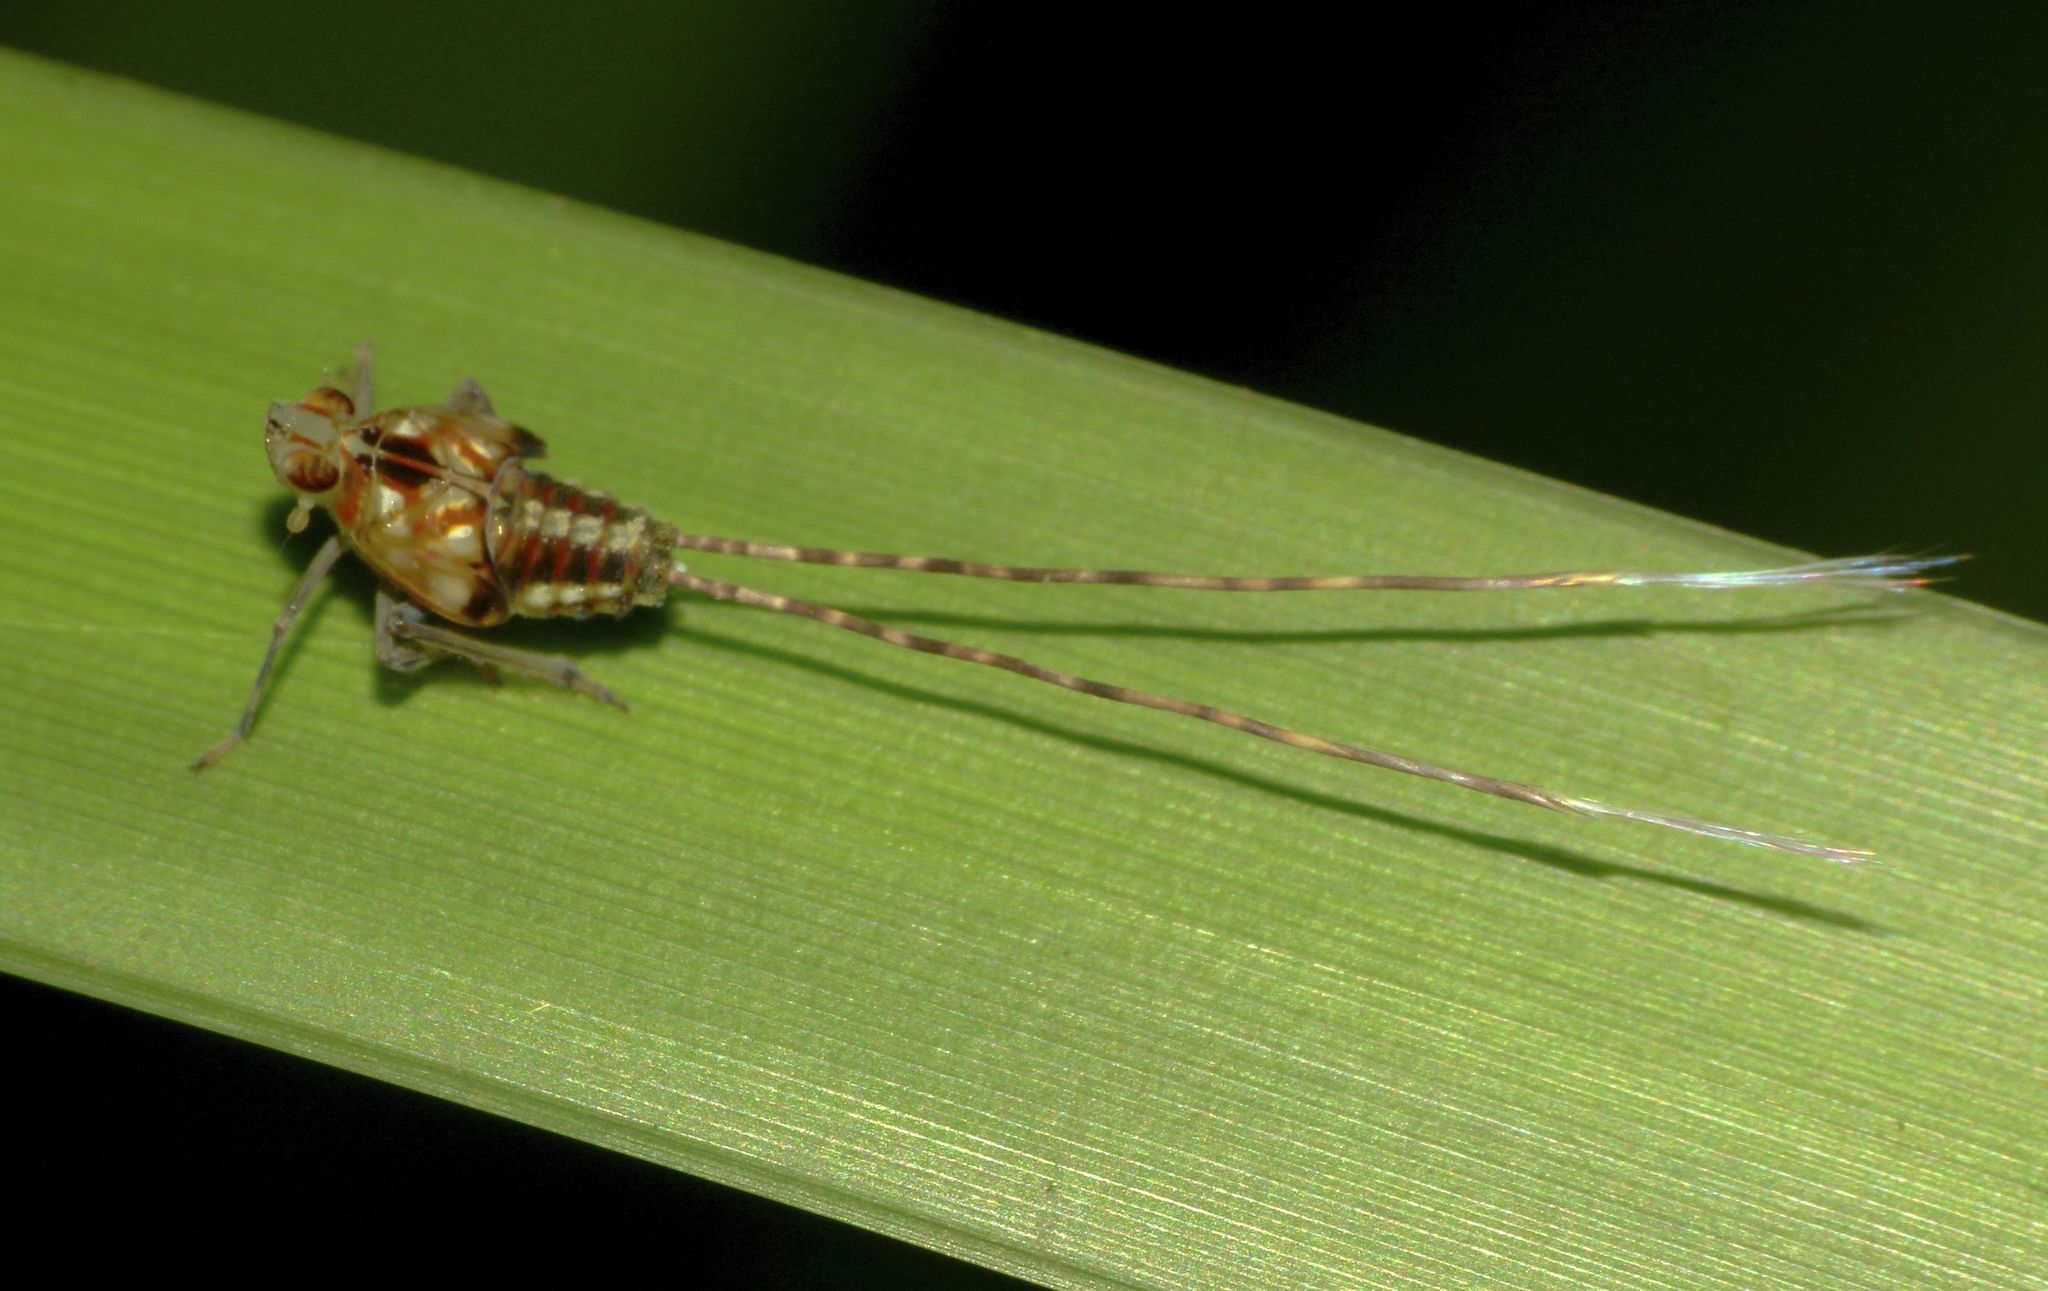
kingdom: Animalia
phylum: Arthropoda
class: Insecta
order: Hemiptera
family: Lophopidae
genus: Magia
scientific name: Magia subocellata
